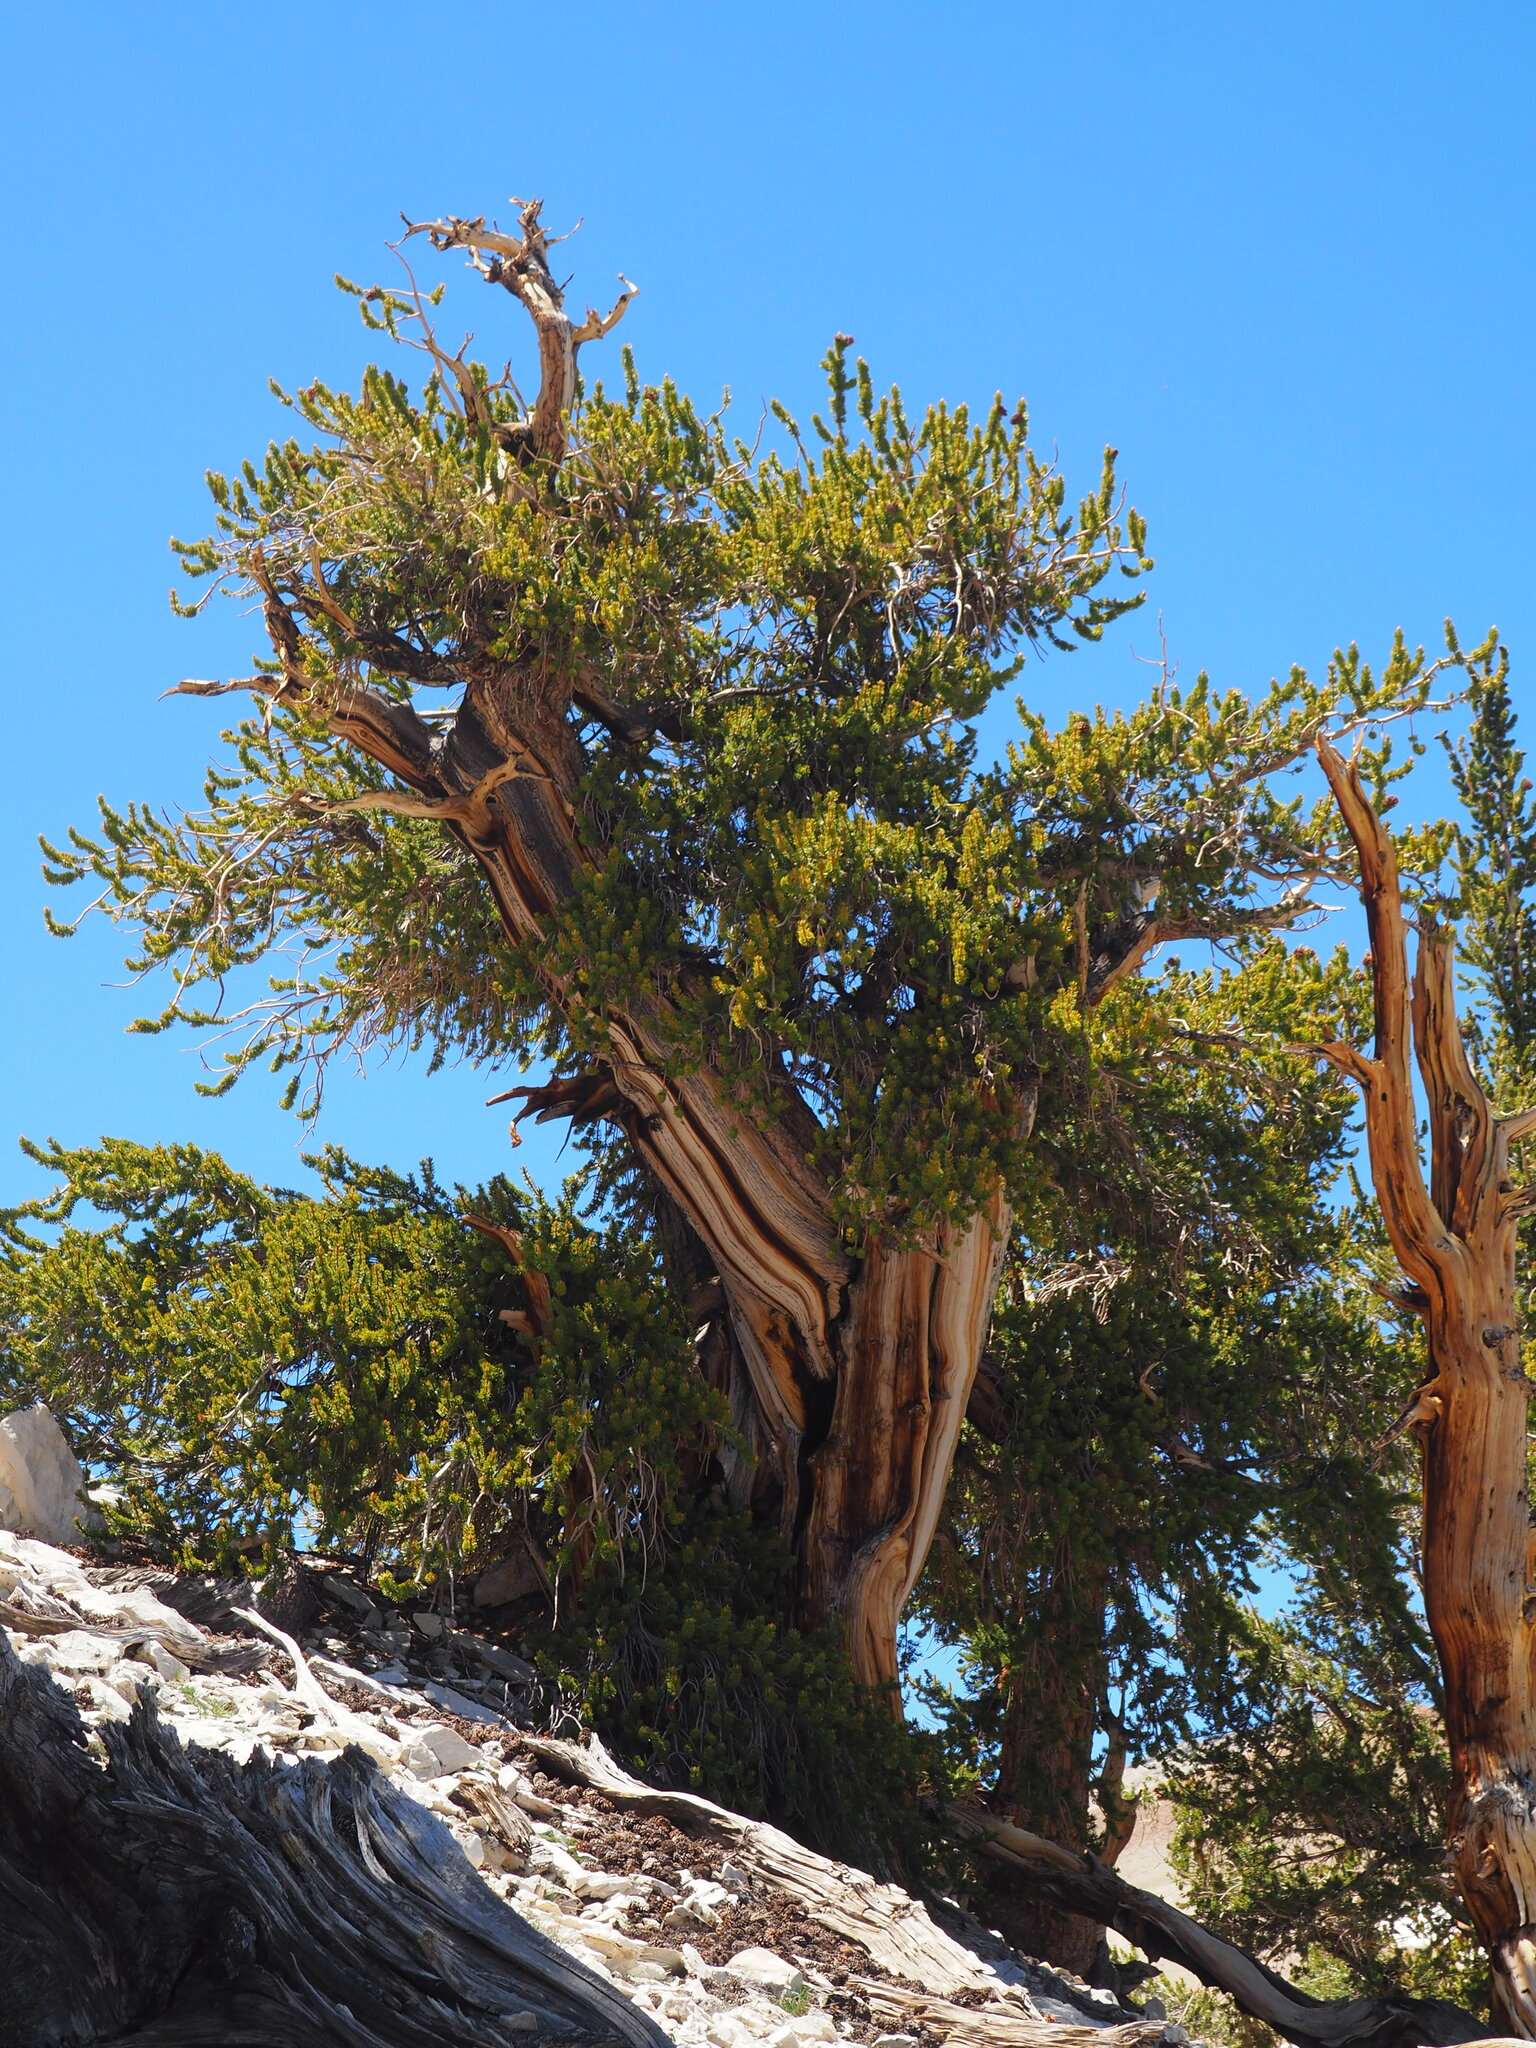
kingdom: Plantae
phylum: Tracheophyta
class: Pinopsida
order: Pinales
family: Pinaceae
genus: Pinus
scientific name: Pinus longaeva
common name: Intermountain bristlecone pine
